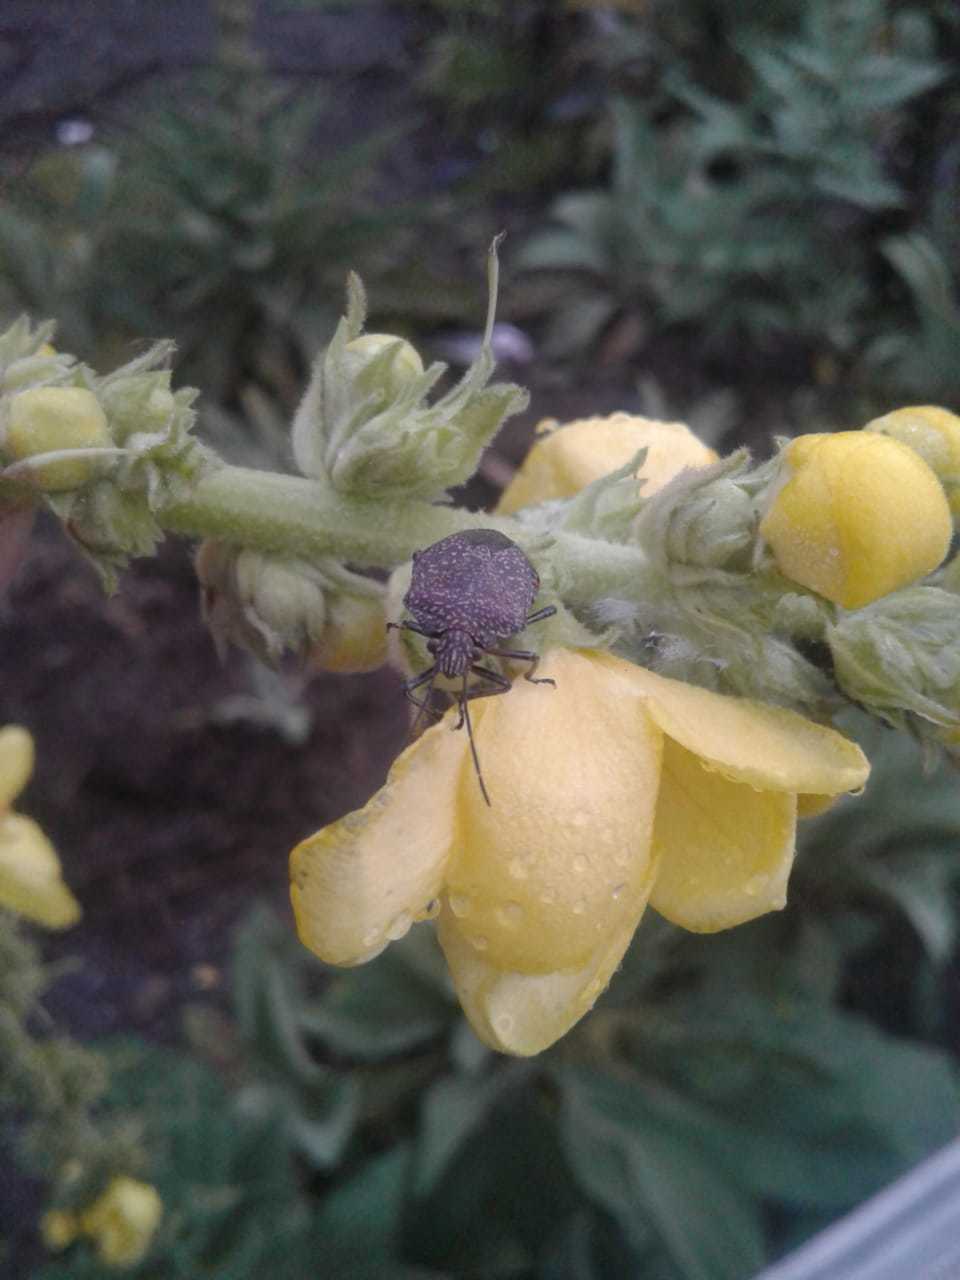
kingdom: Animalia
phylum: Arthropoda
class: Insecta
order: Hemiptera
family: Pentatomidae
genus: Pellaea
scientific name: Pellaea stictica
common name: Stink bug
